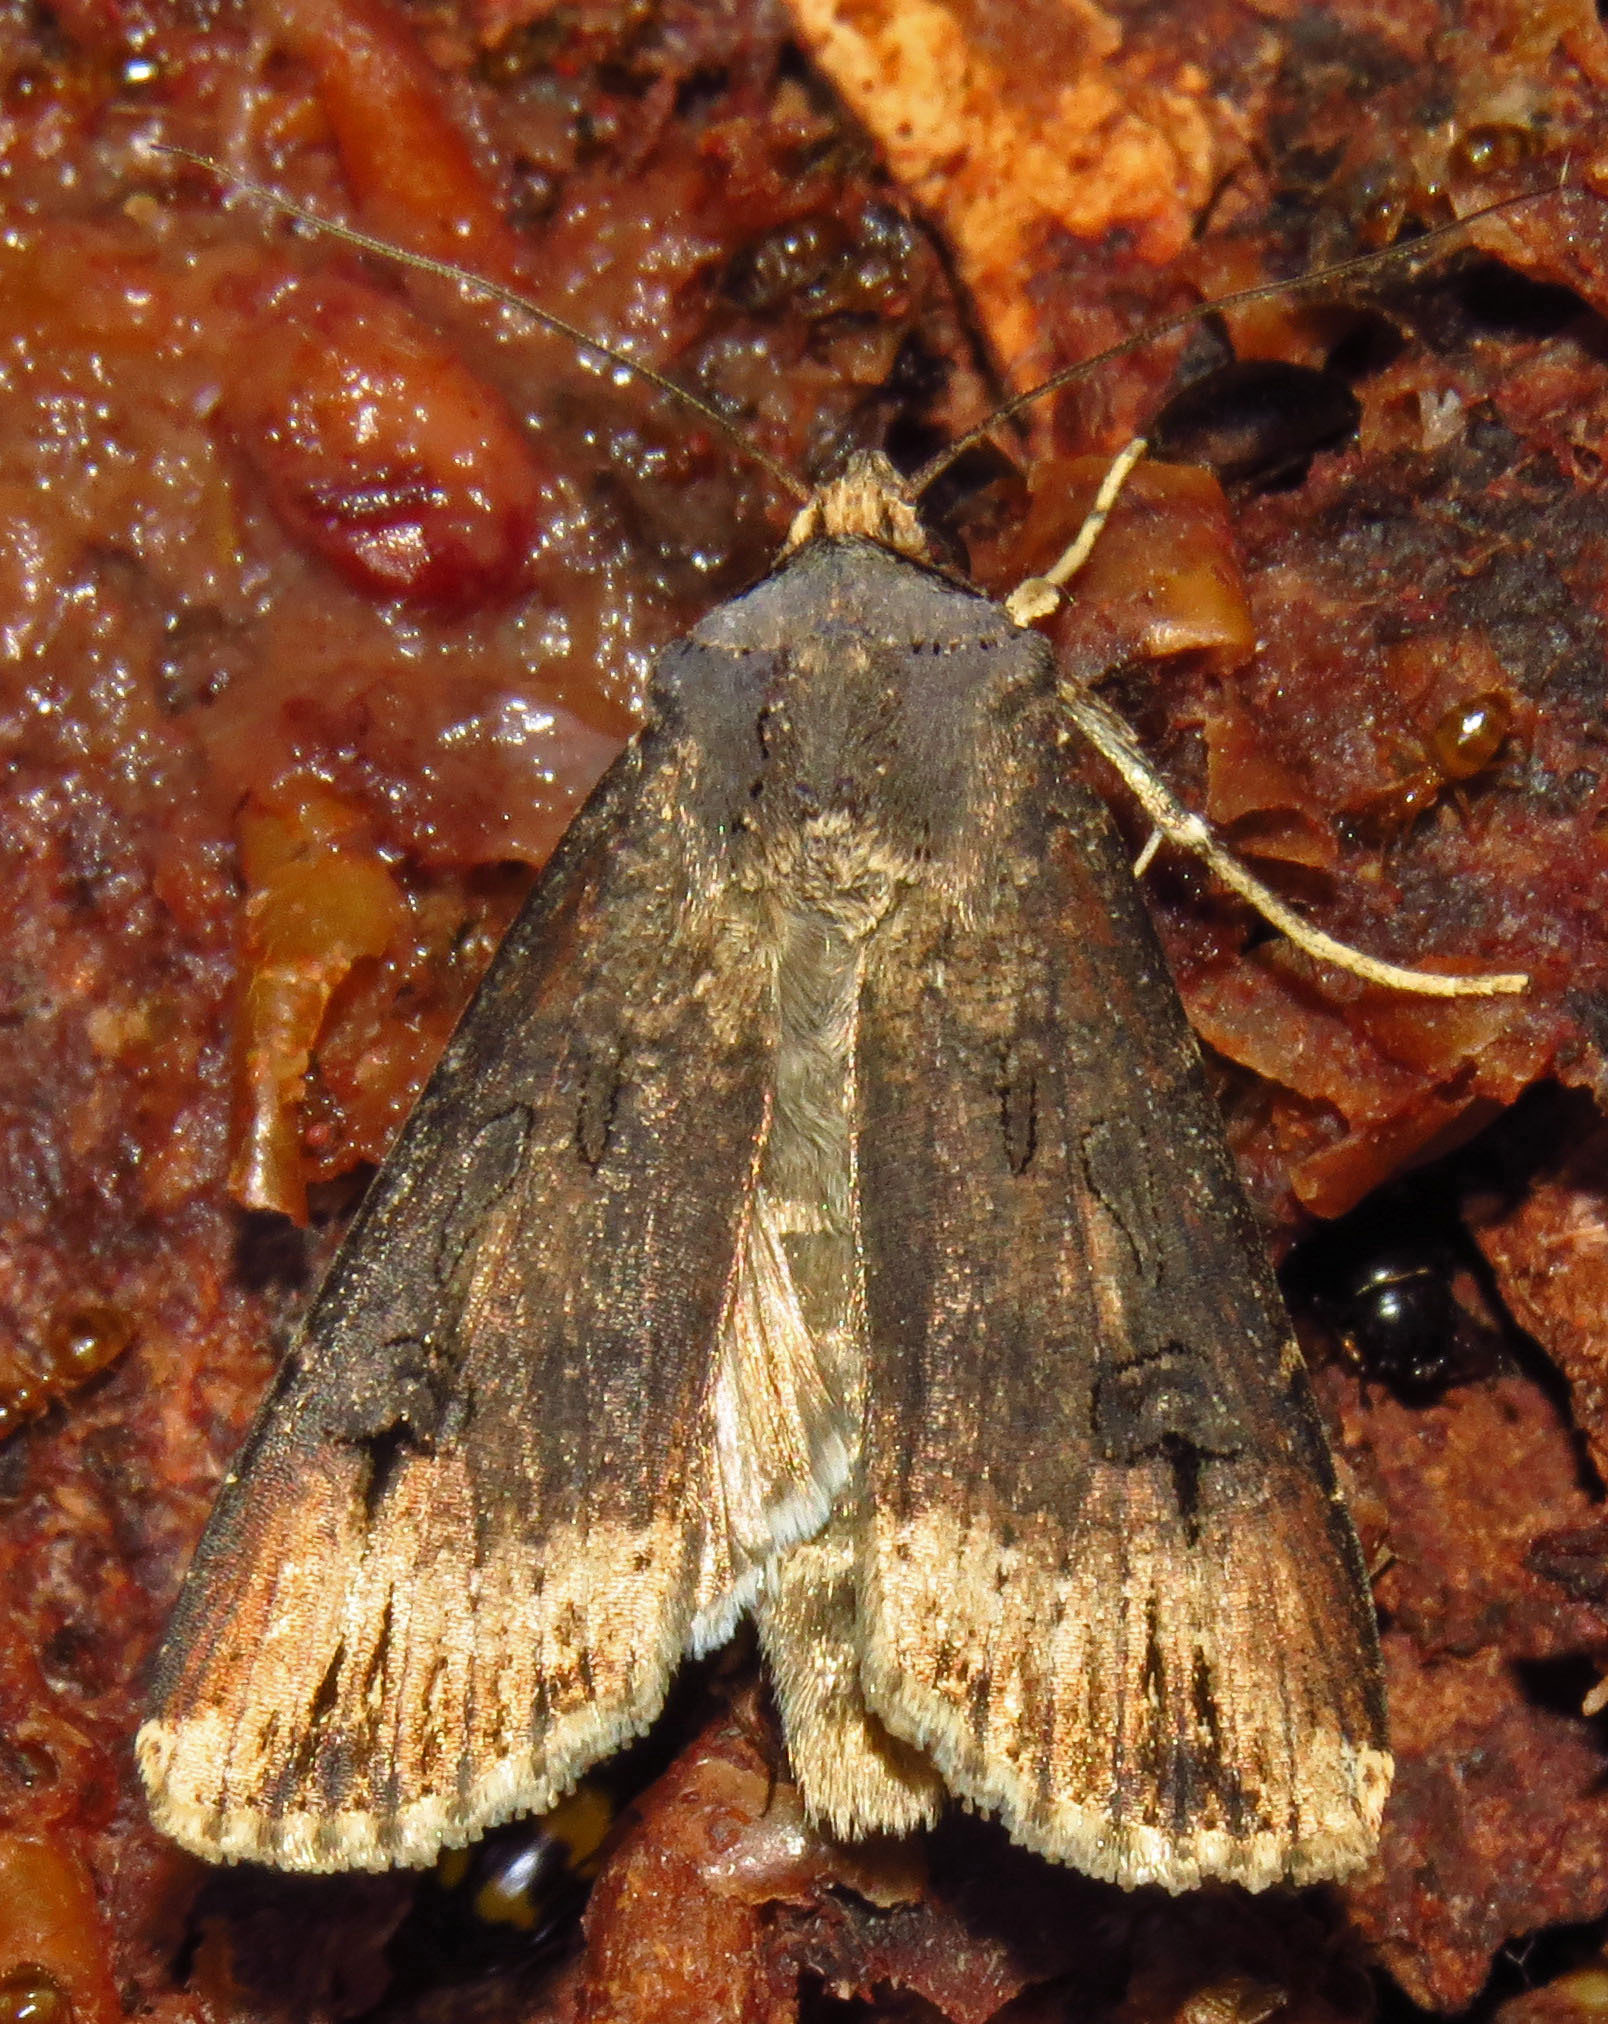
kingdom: Animalia
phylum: Arthropoda
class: Insecta
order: Lepidoptera
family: Noctuidae
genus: Agrotis
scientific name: Agrotis ipsilon
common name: Dark sword-grass
